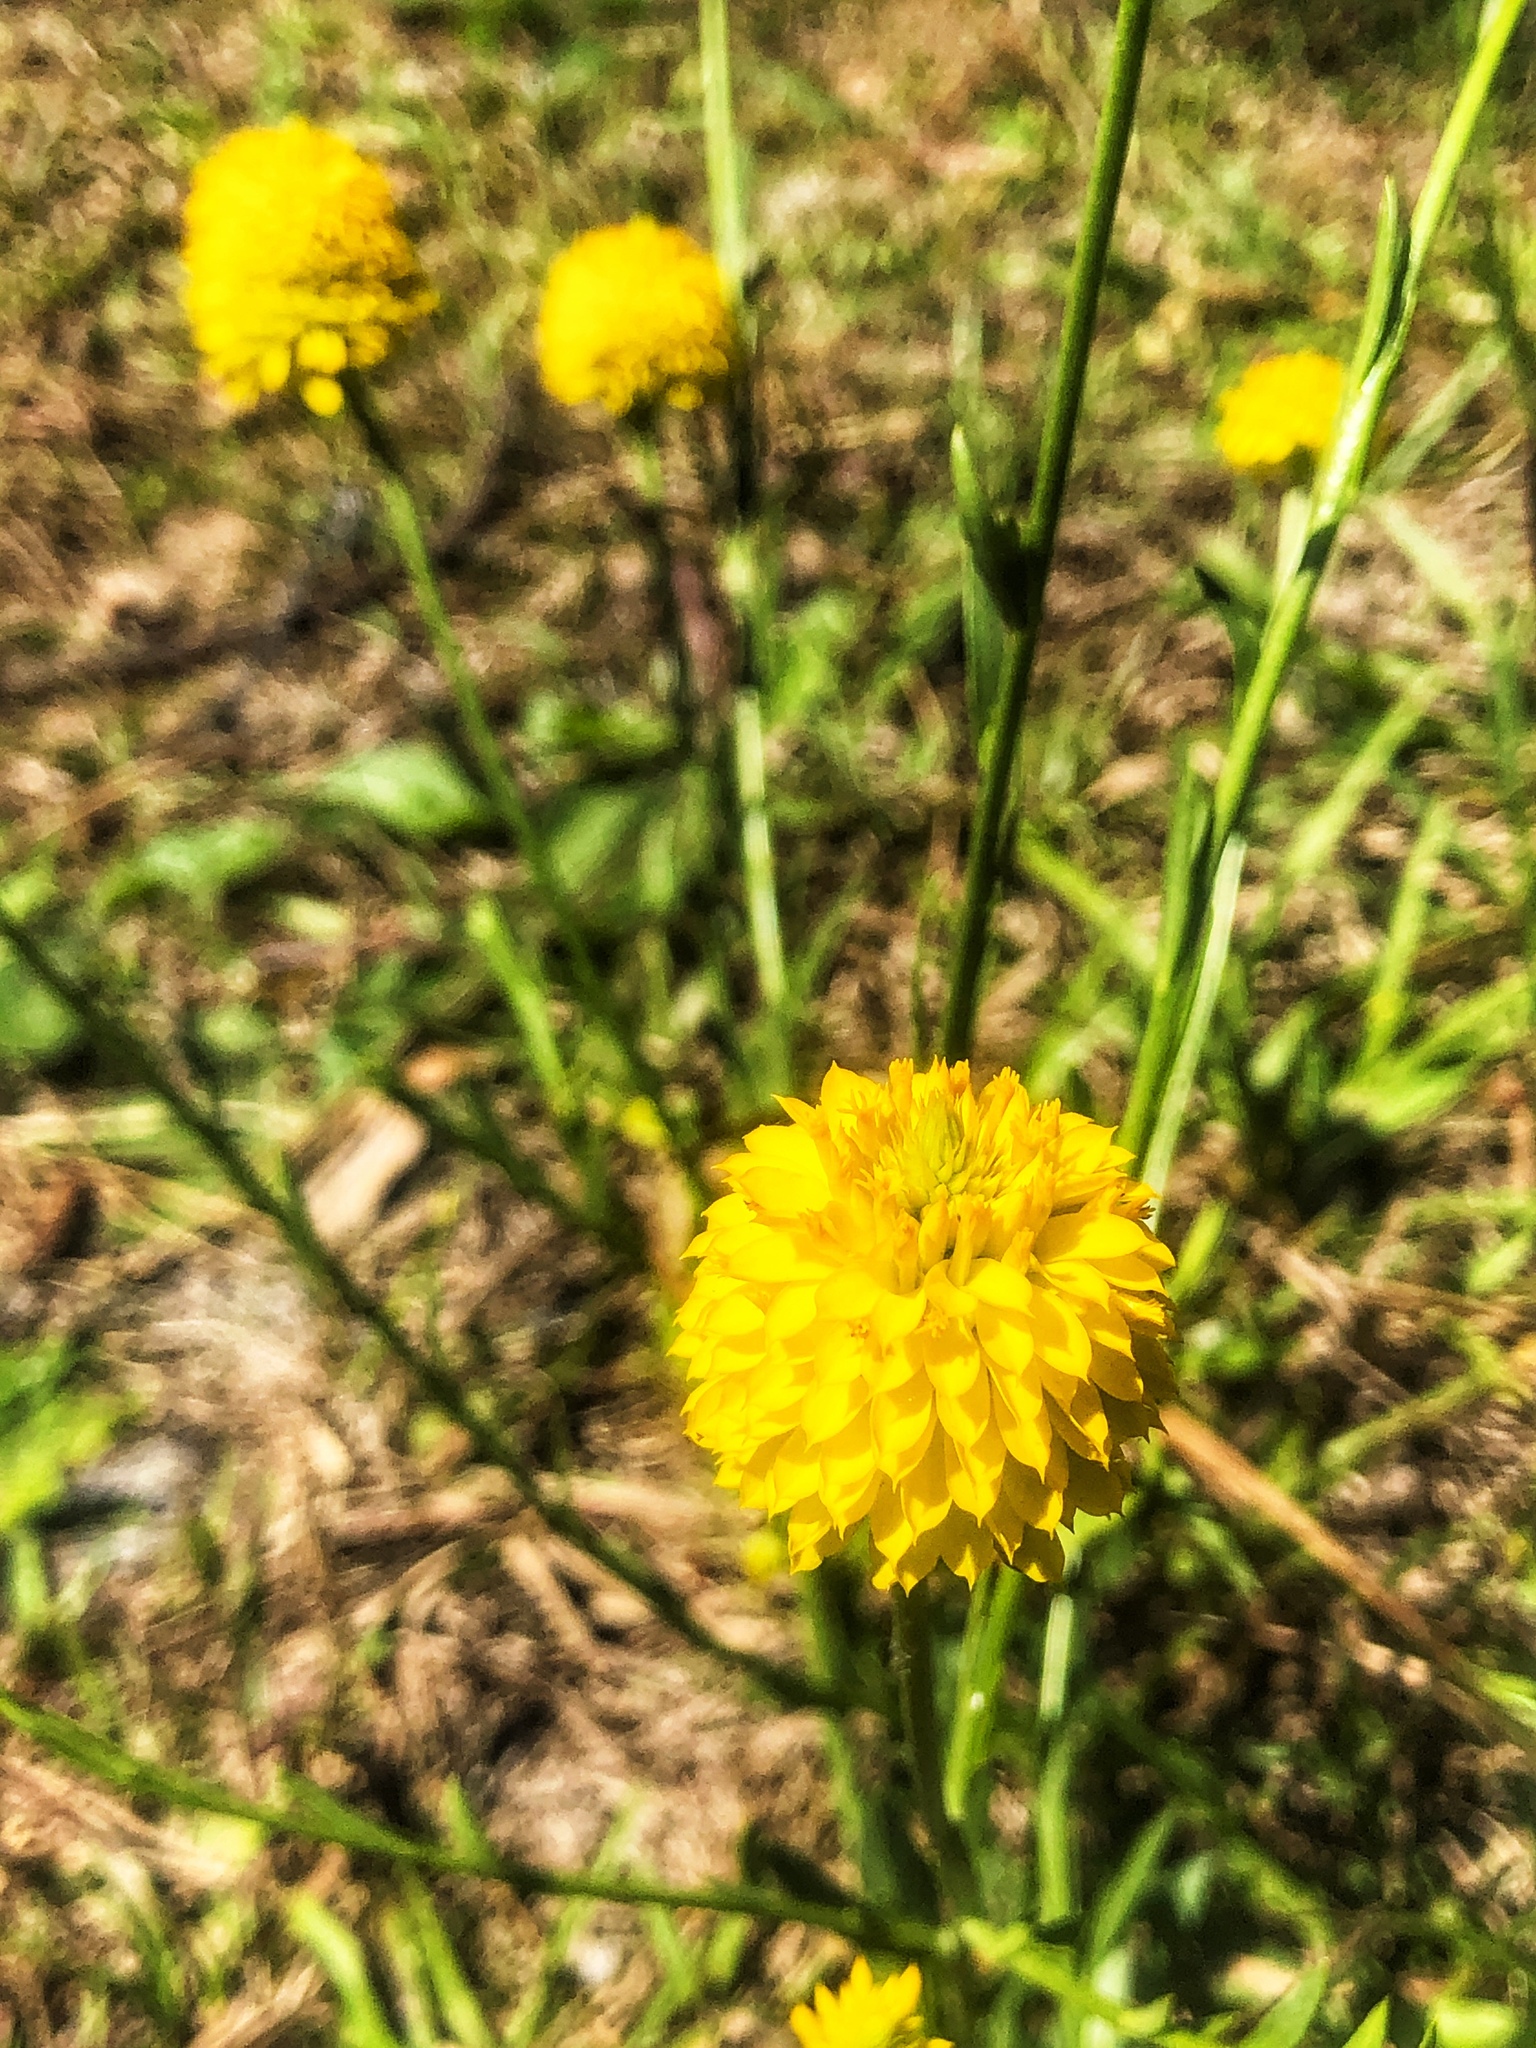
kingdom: Plantae
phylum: Tracheophyta
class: Magnoliopsida
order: Fabales
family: Polygalaceae
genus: Polygala
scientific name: Polygala rugelii
